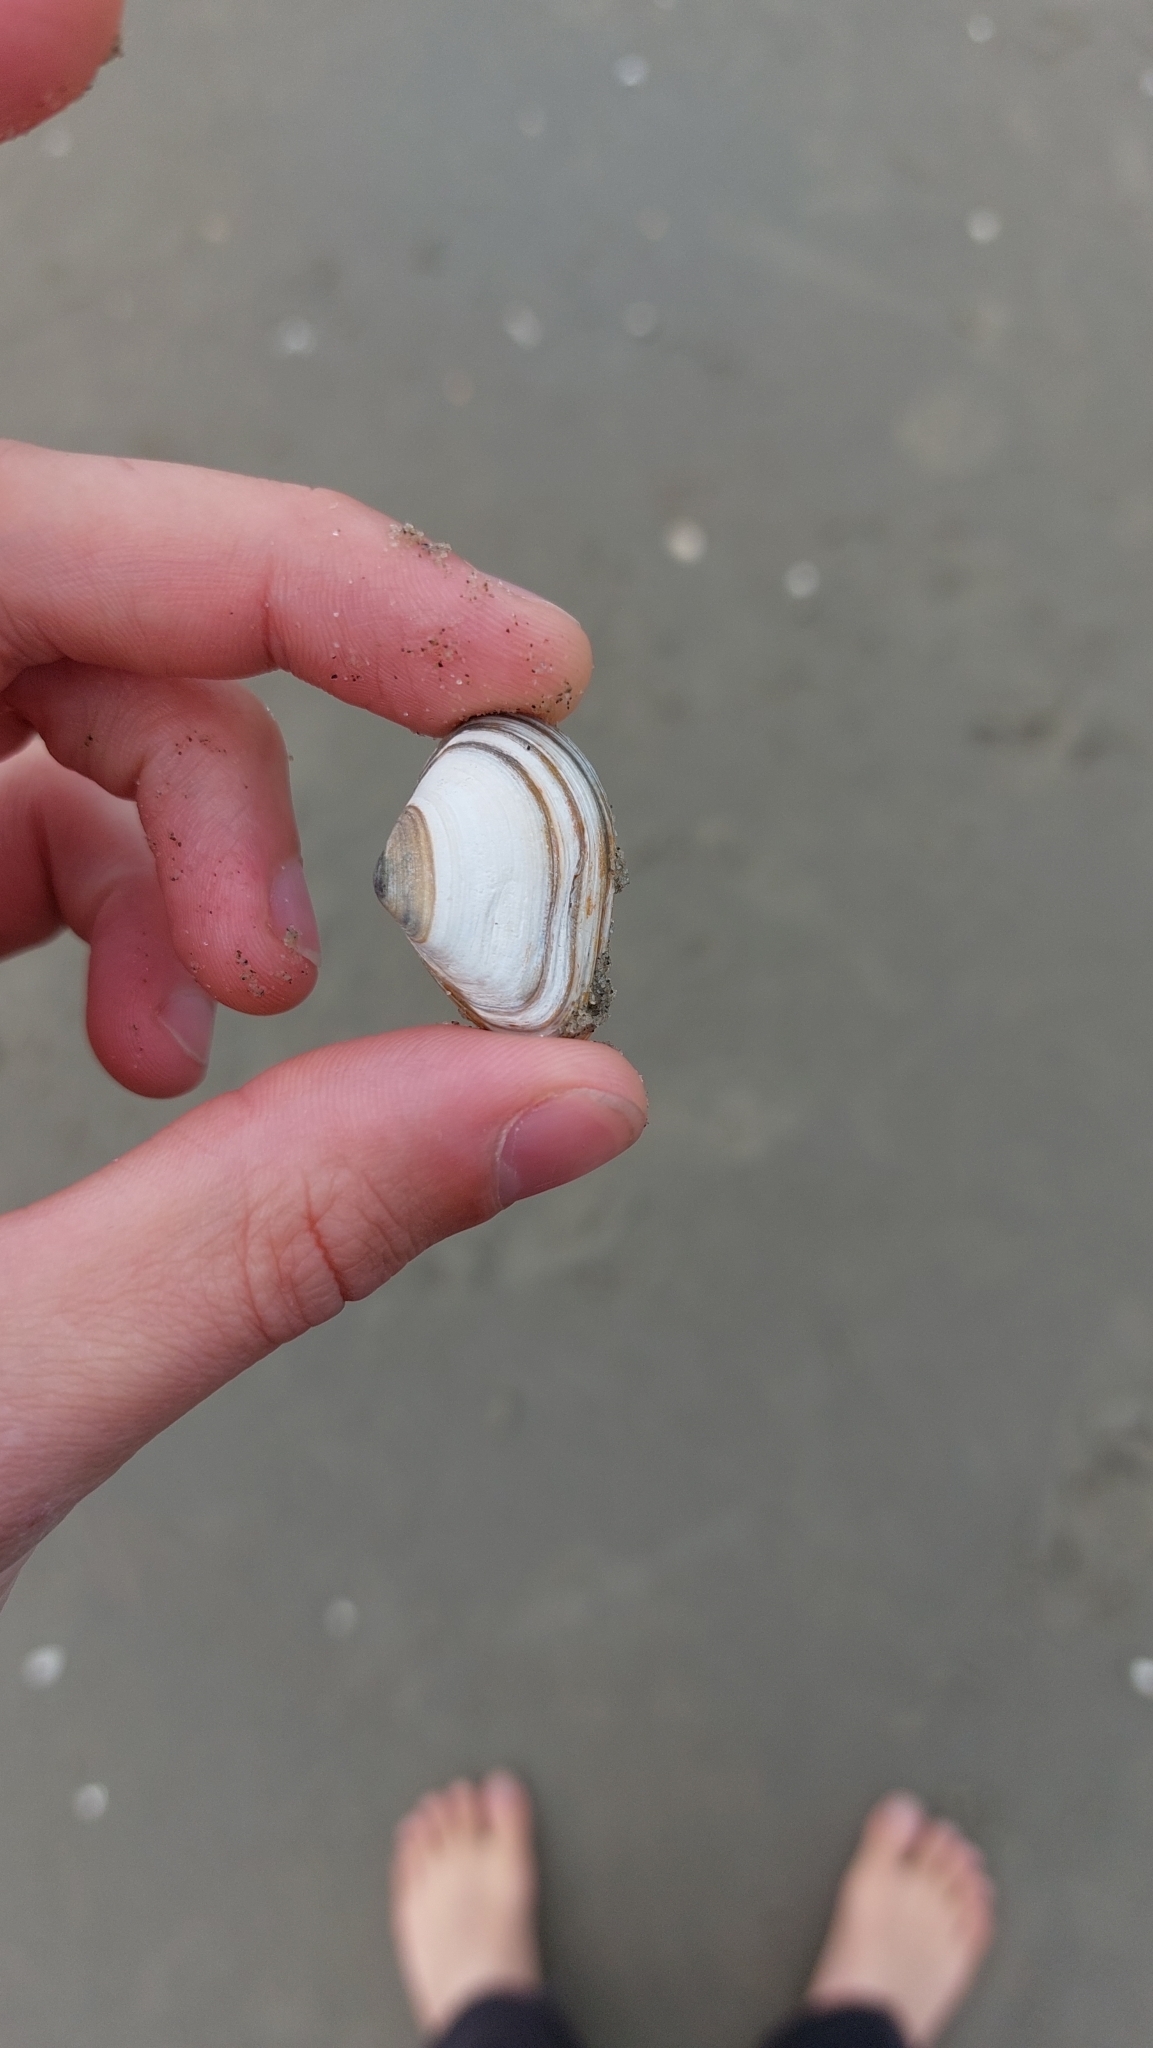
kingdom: Animalia
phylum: Mollusca
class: Bivalvia
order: Venerida
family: Mactridae
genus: Spisula
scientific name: Spisula subtruncata
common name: Cut trough shell
